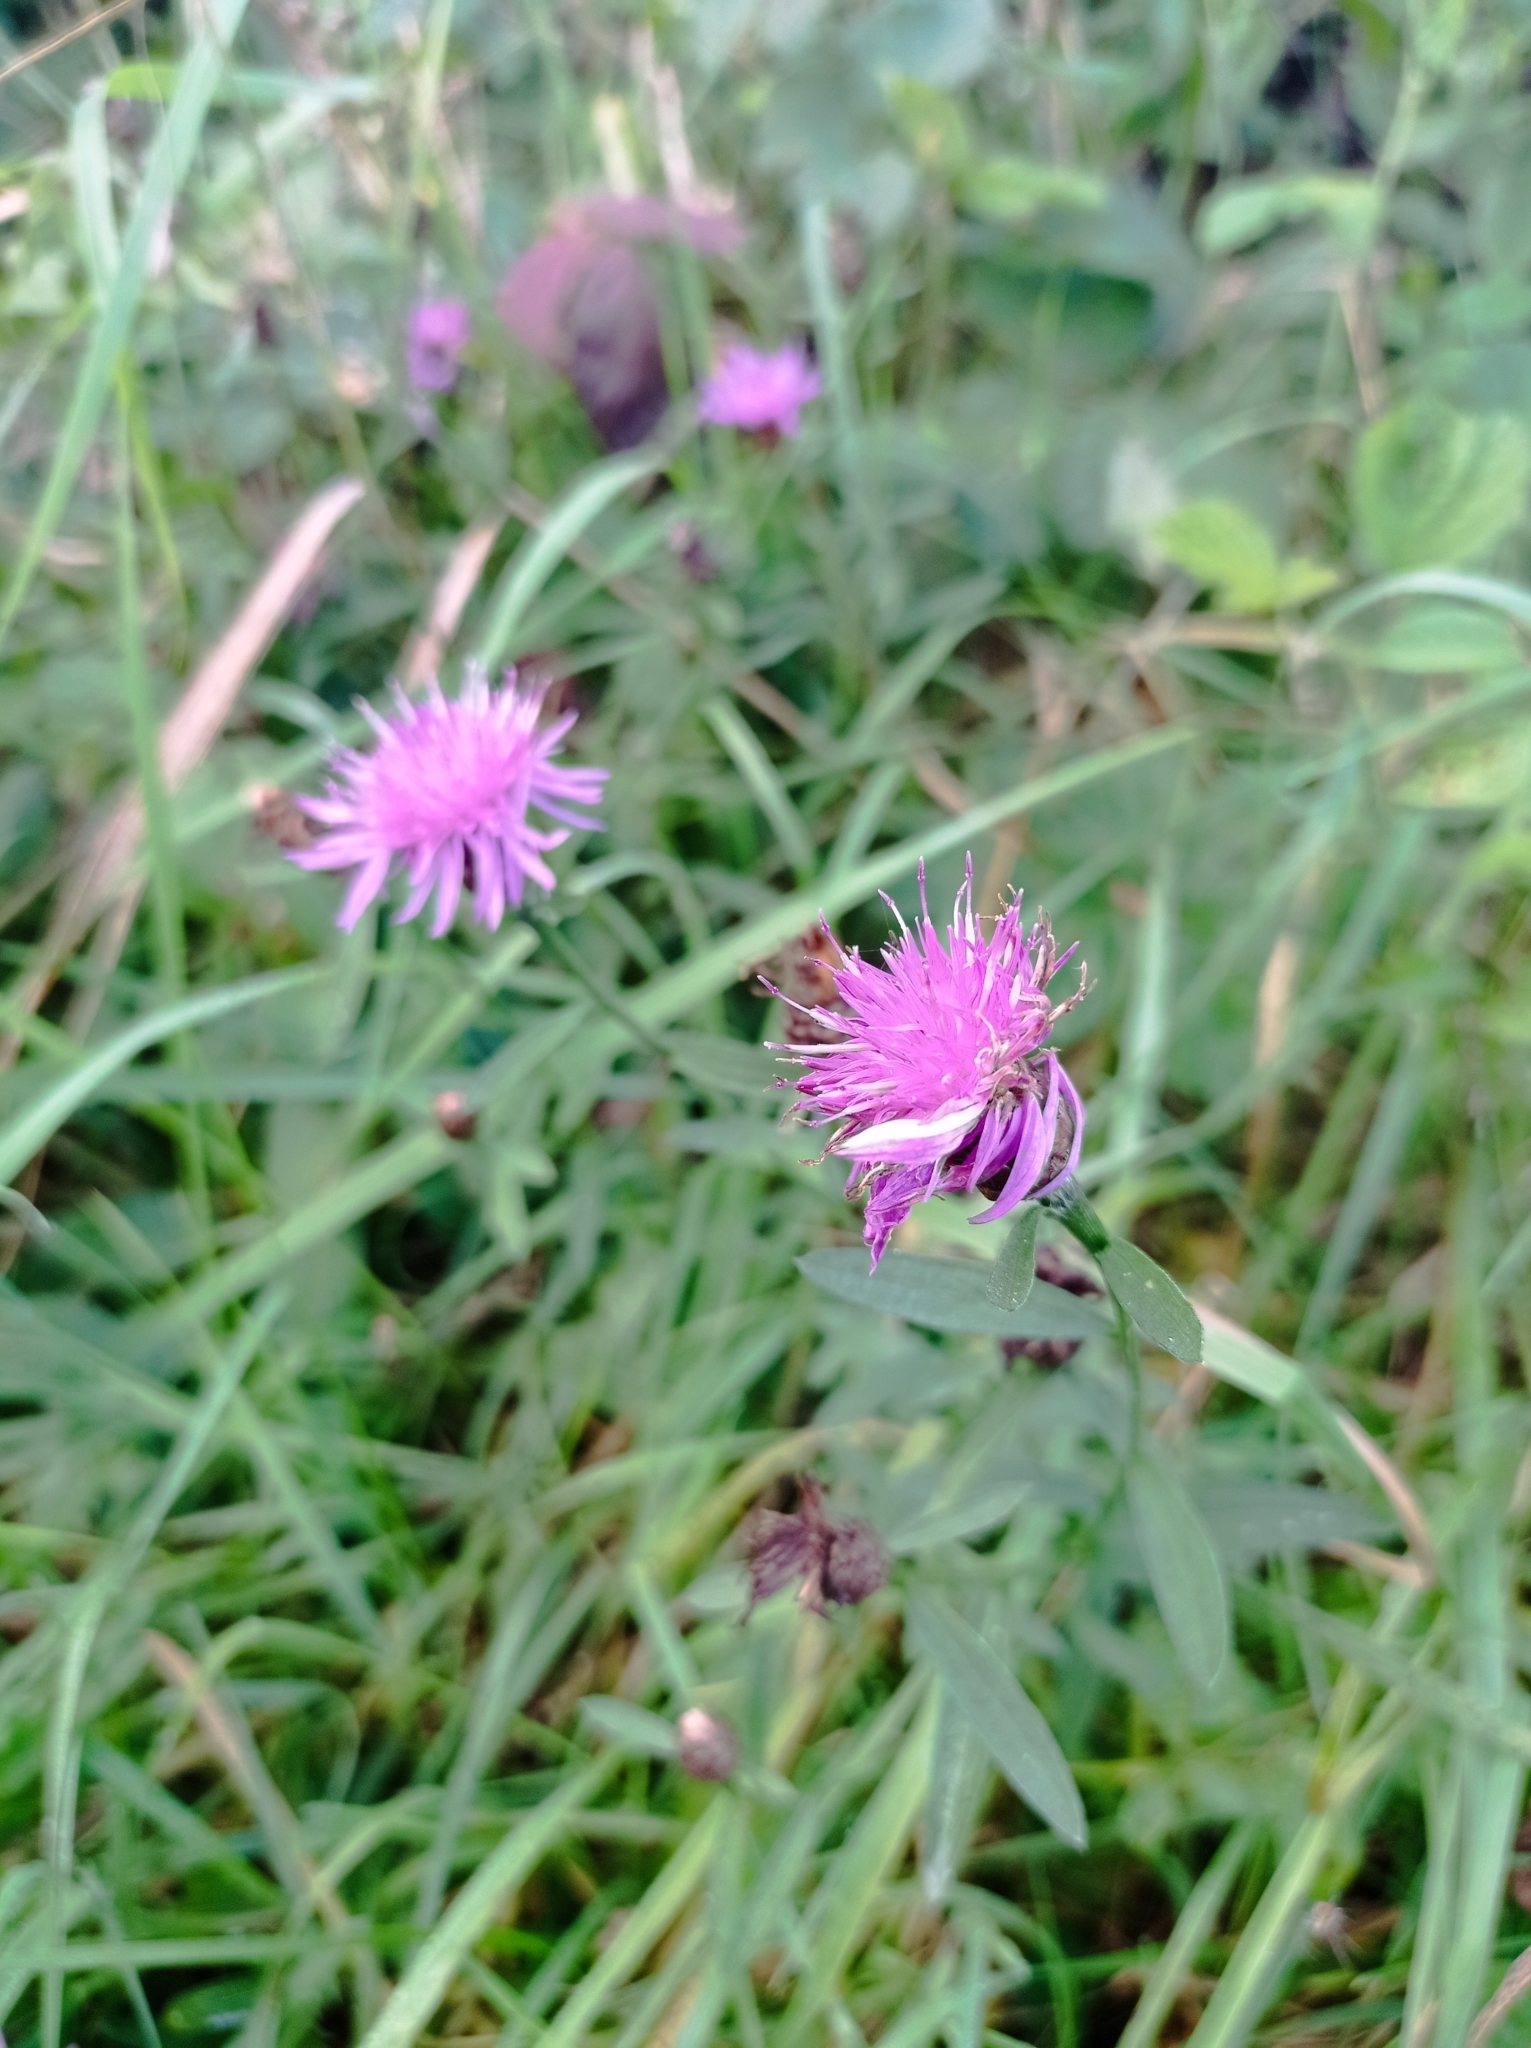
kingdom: Plantae
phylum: Tracheophyta
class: Magnoliopsida
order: Asterales
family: Asteraceae
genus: Centaurea
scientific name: Centaurea jacea
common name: Brown knapweed
